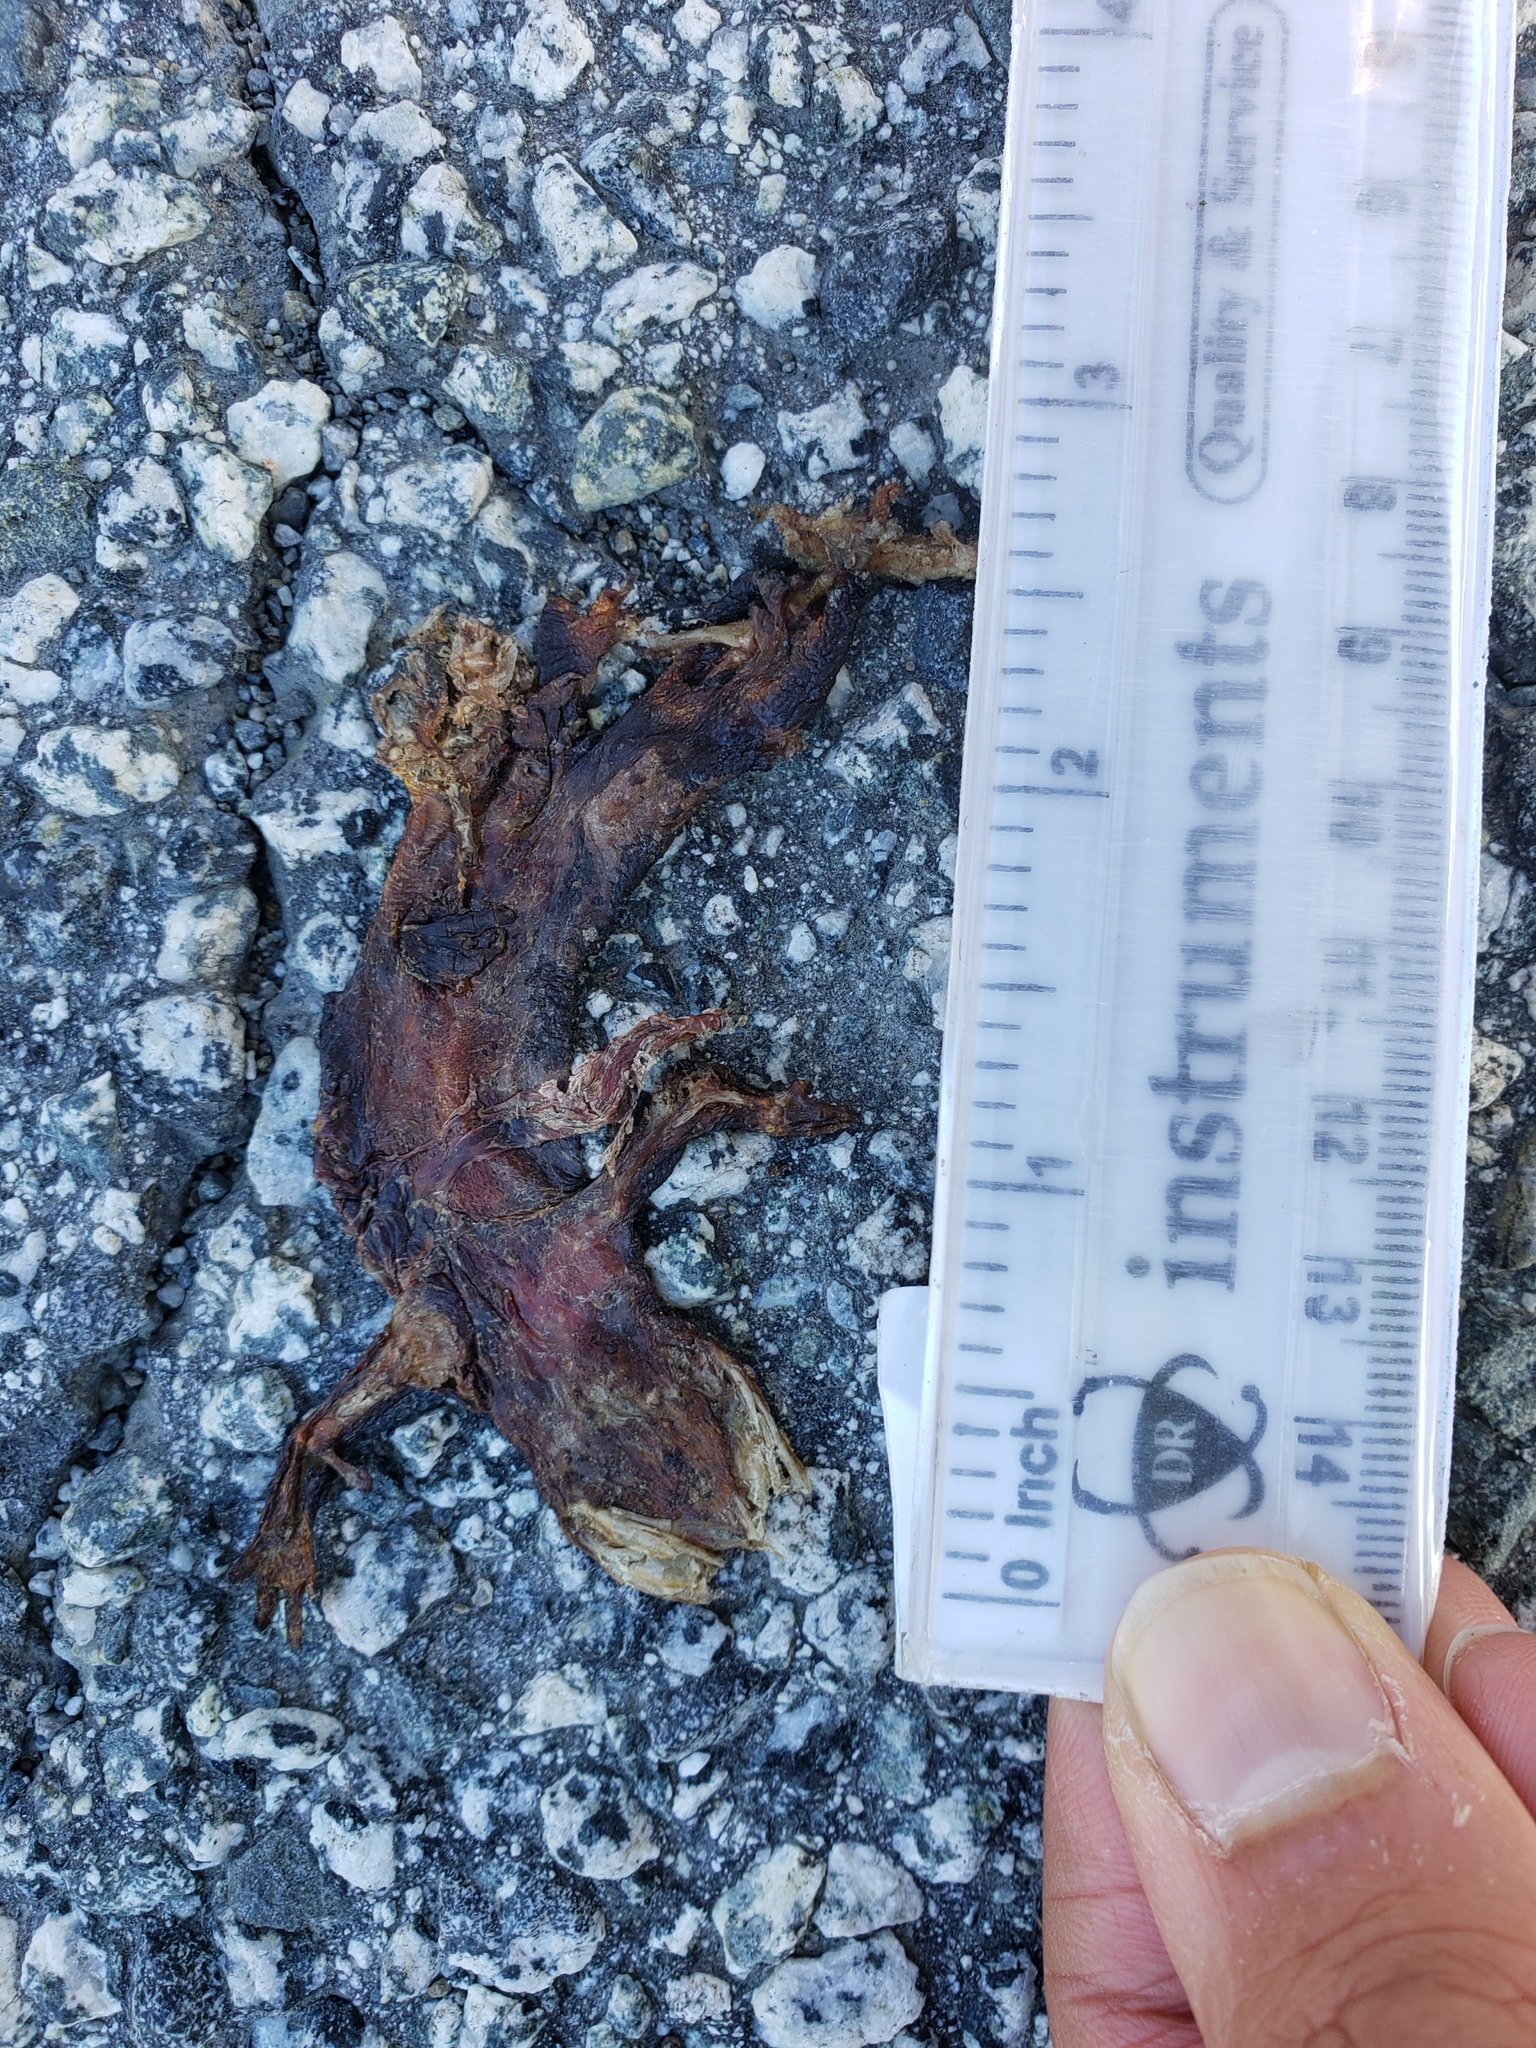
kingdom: Animalia
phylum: Chordata
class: Amphibia
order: Caudata
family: Salamandridae
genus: Taricha
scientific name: Taricha
